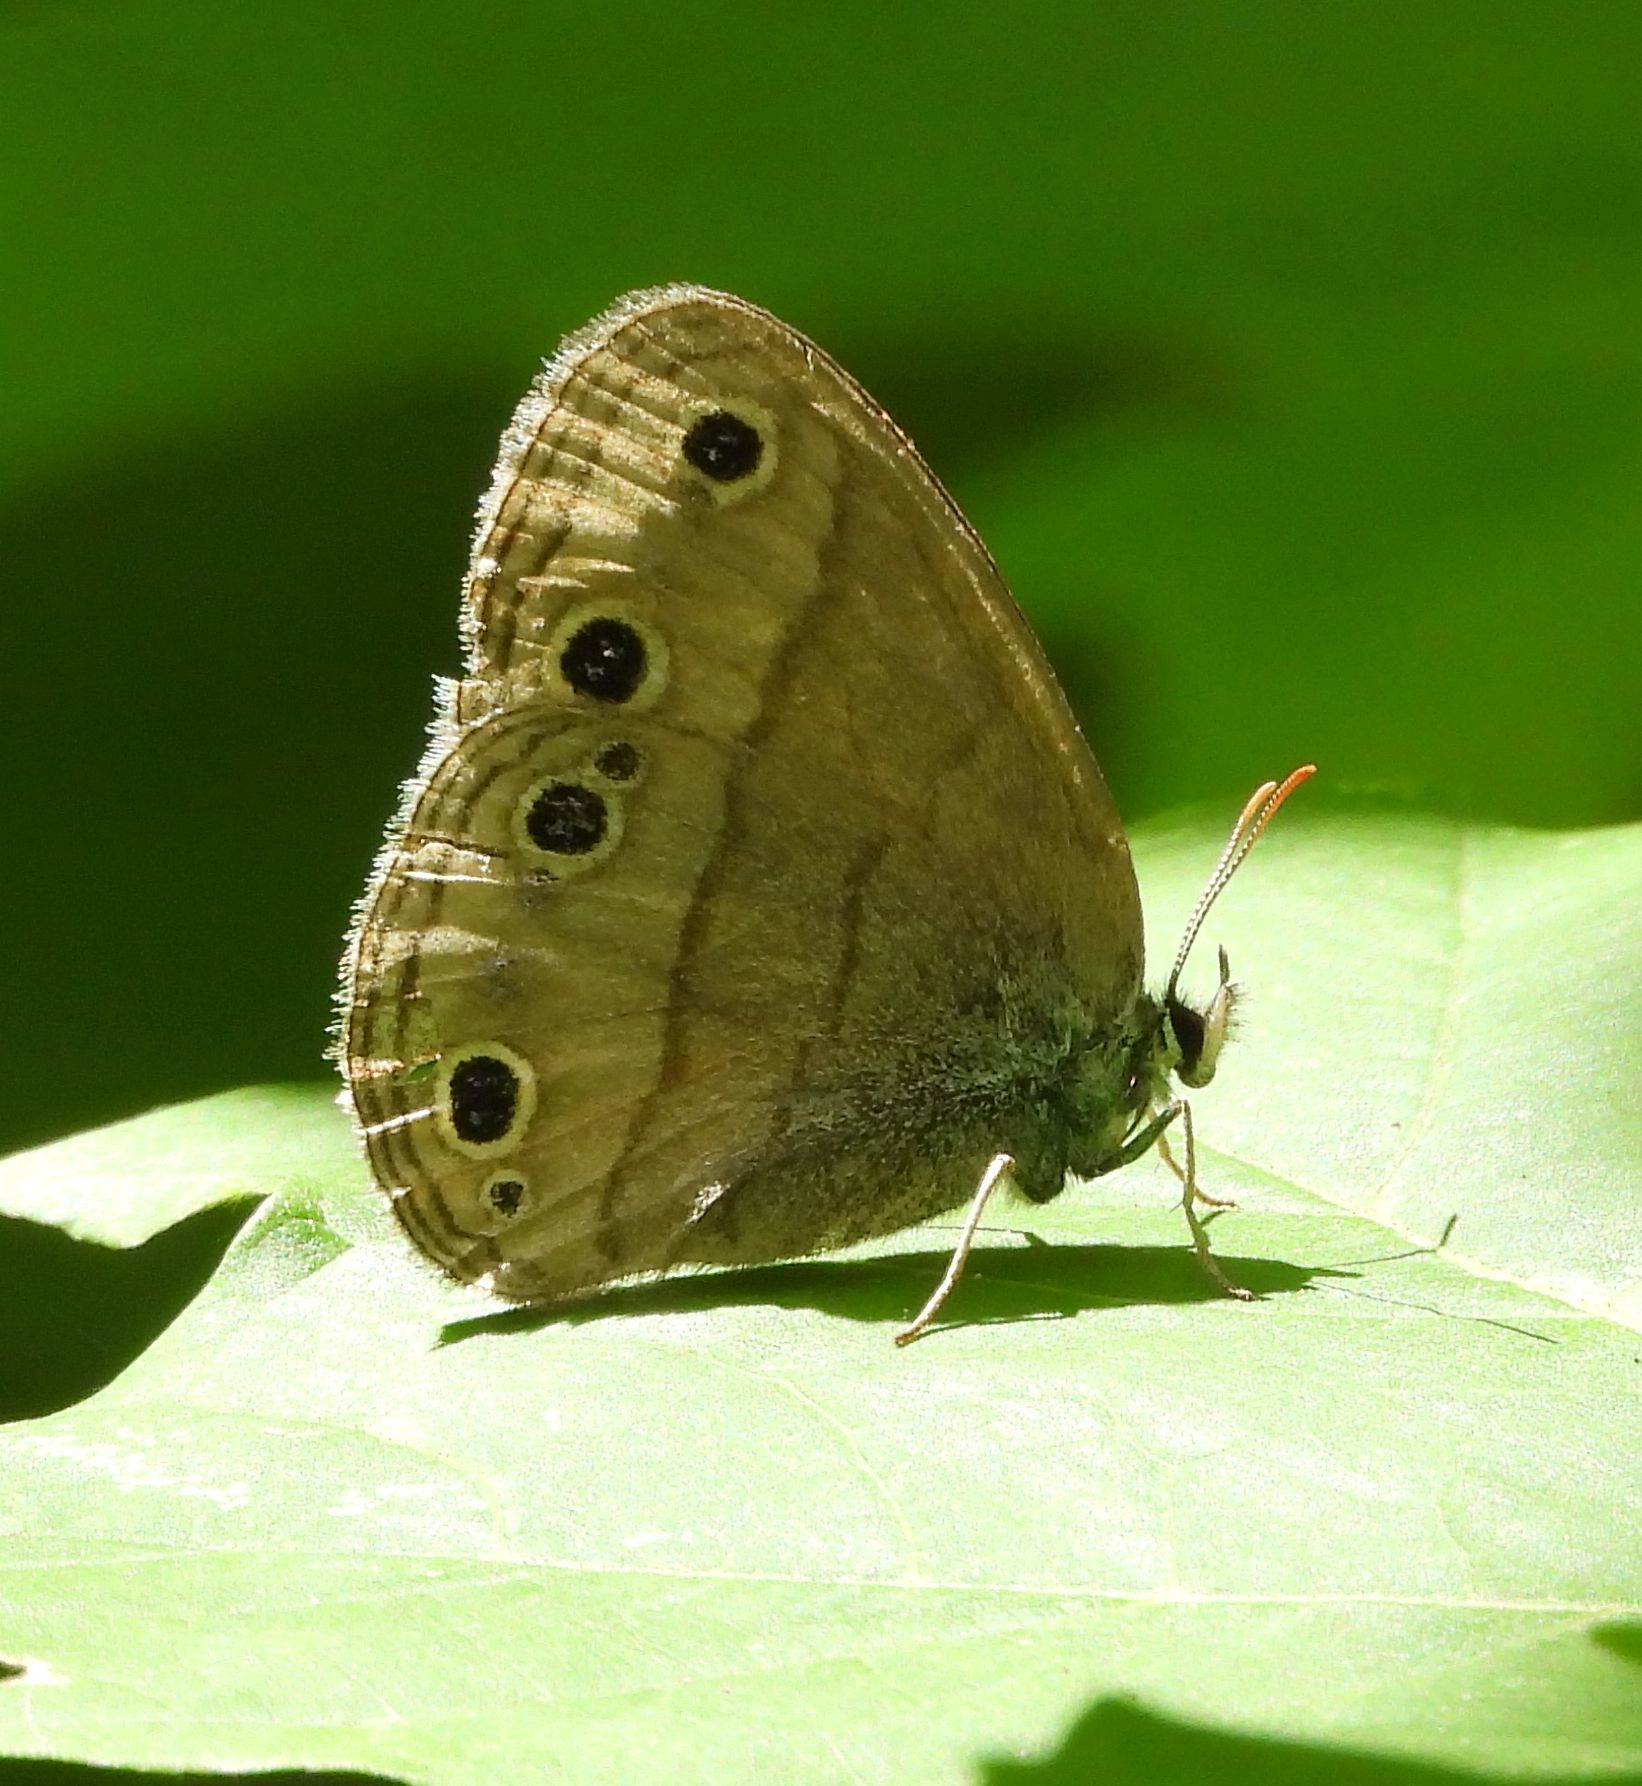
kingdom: Animalia
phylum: Arthropoda
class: Insecta
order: Lepidoptera
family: Nymphalidae
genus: Euptychia
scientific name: Euptychia cymela
